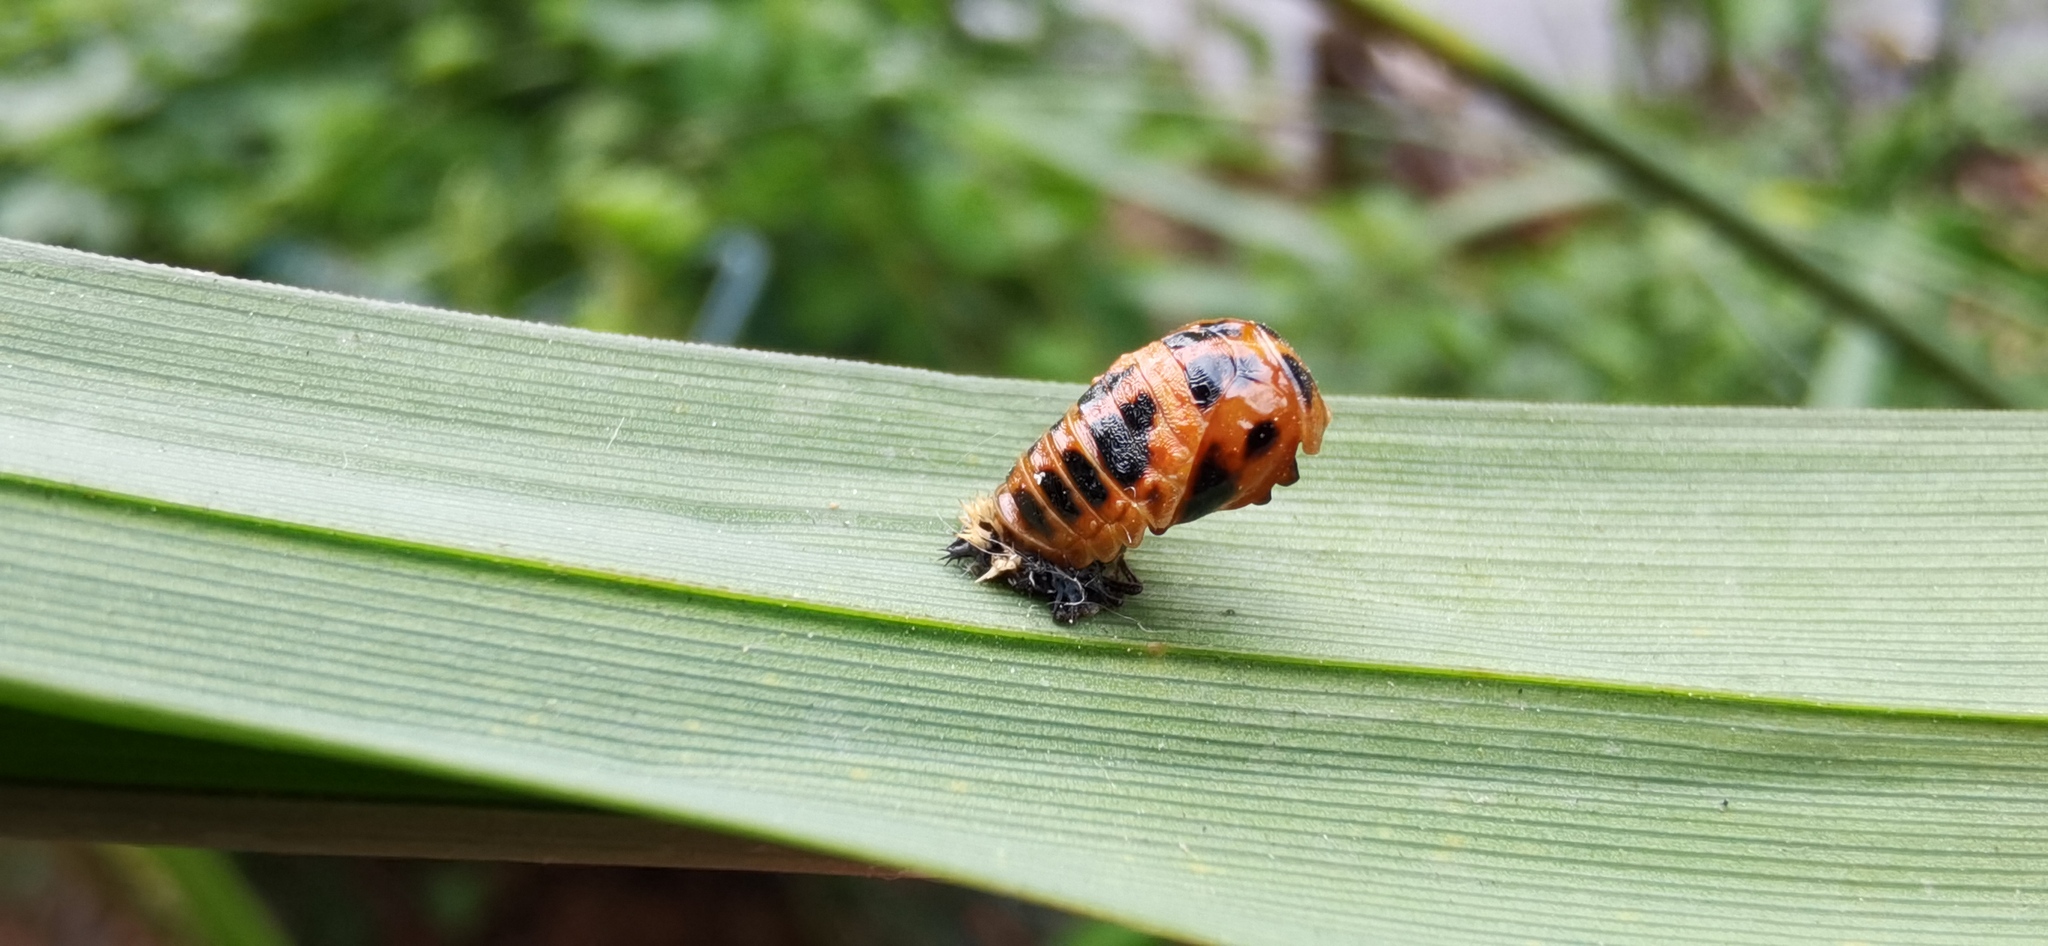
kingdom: Animalia
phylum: Arthropoda
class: Insecta
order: Coleoptera
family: Coccinellidae
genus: Harmonia
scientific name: Harmonia axyridis
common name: Harlequin ladybird
